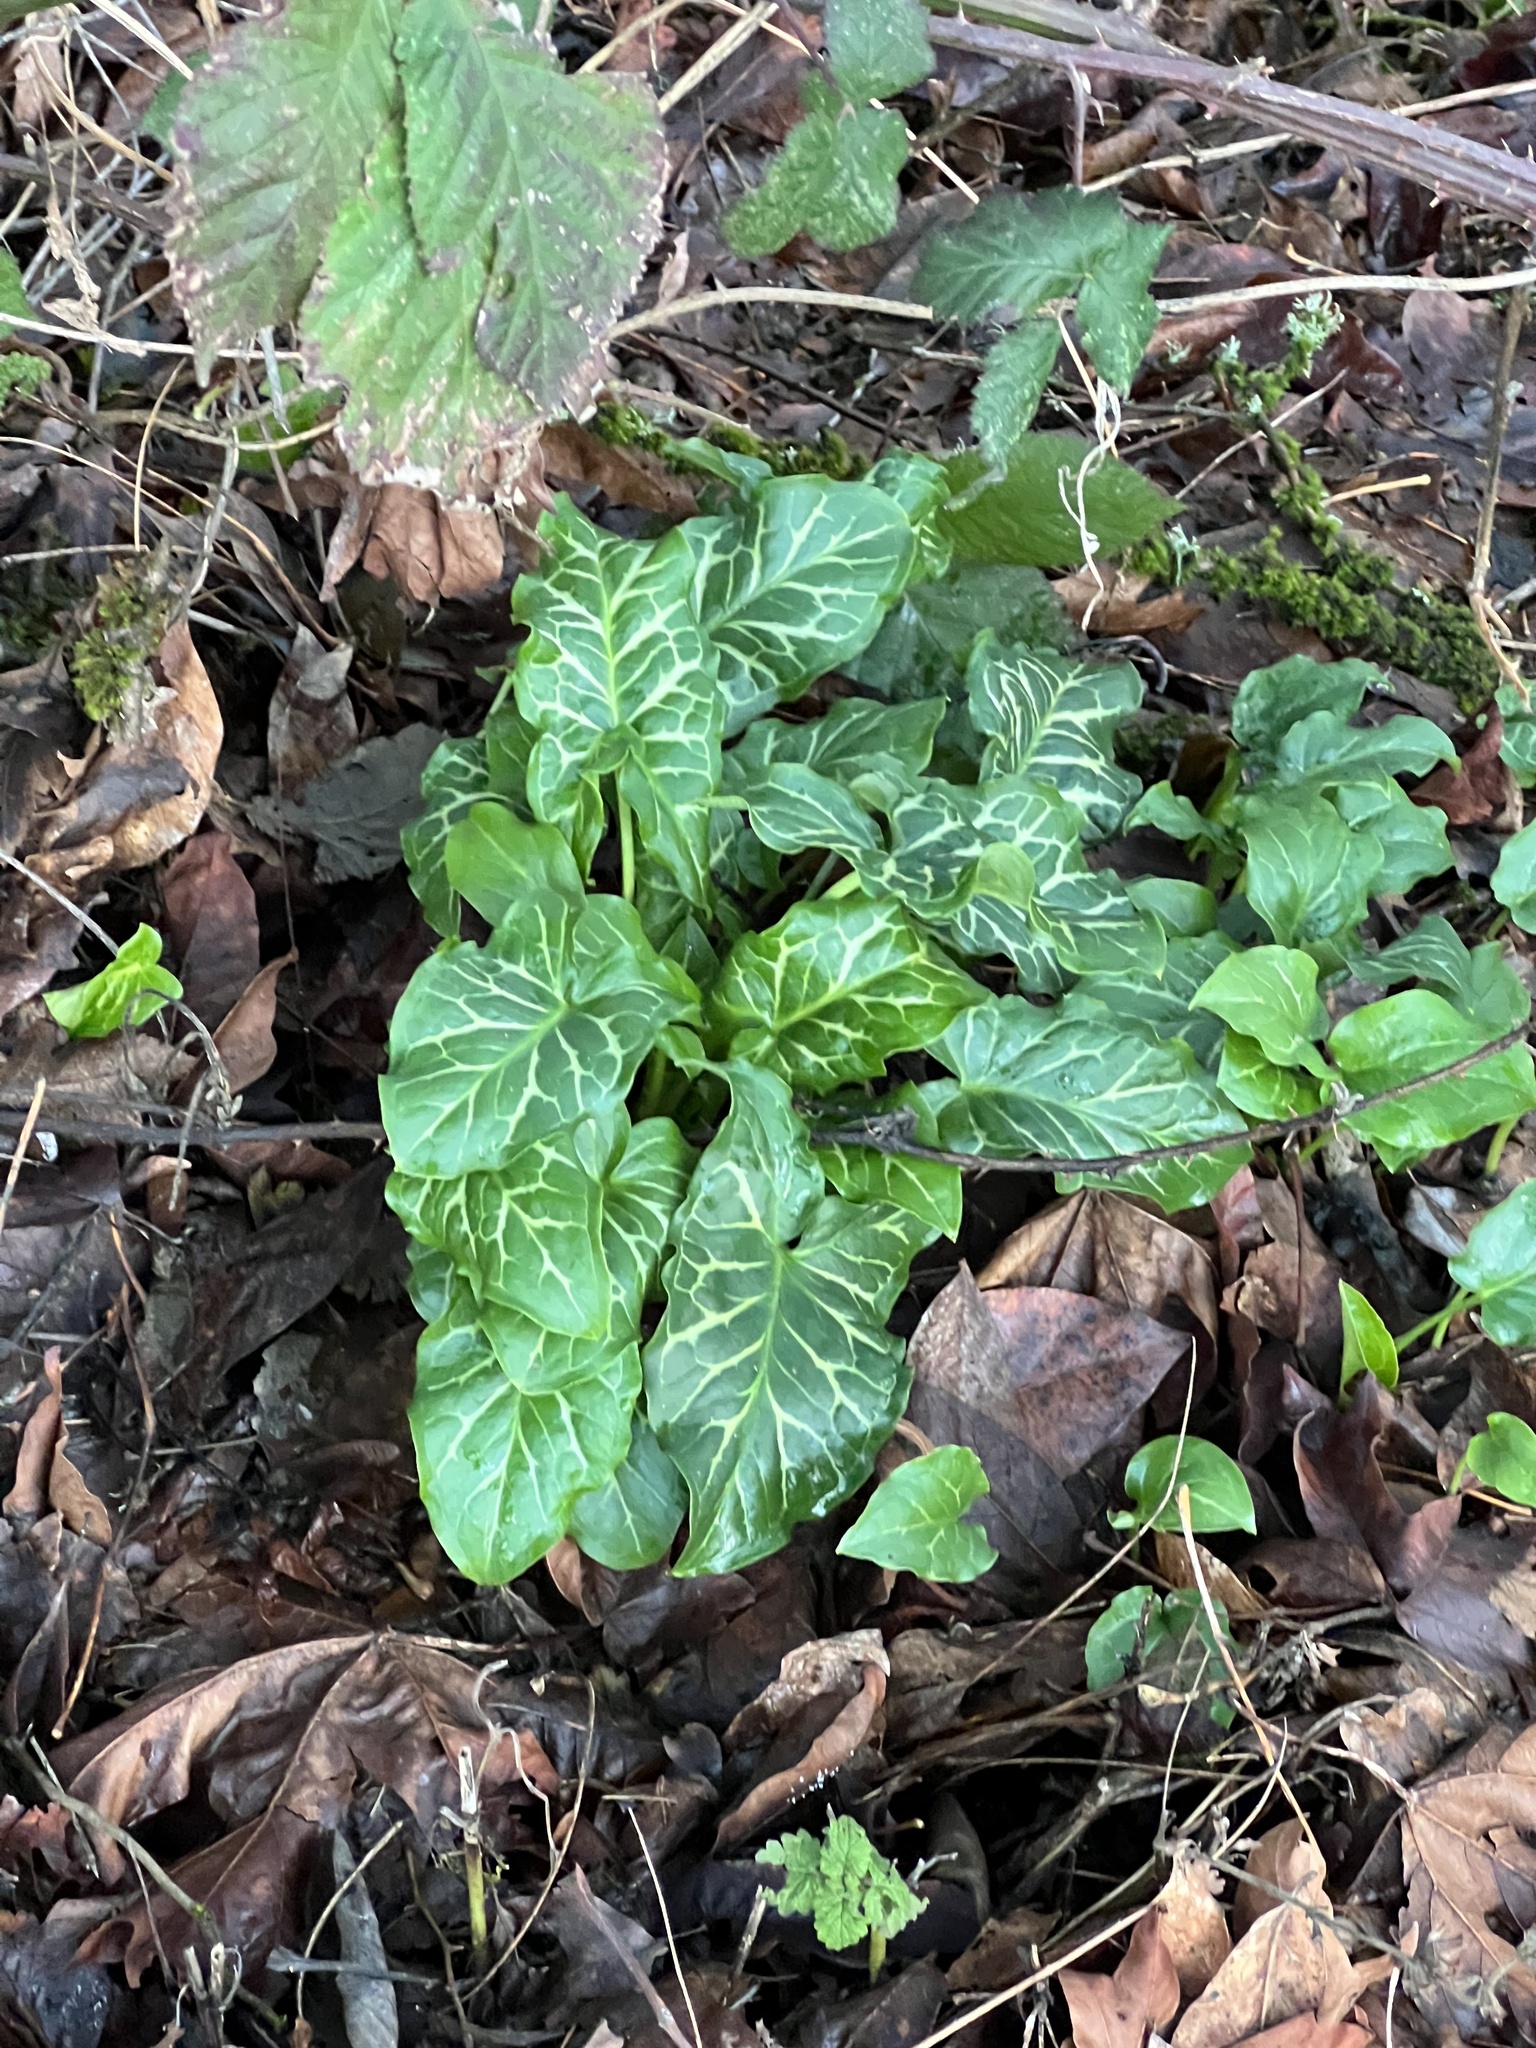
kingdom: Plantae
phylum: Tracheophyta
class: Liliopsida
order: Alismatales
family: Araceae
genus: Arum
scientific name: Arum italicum
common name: Italian lords-and-ladies
